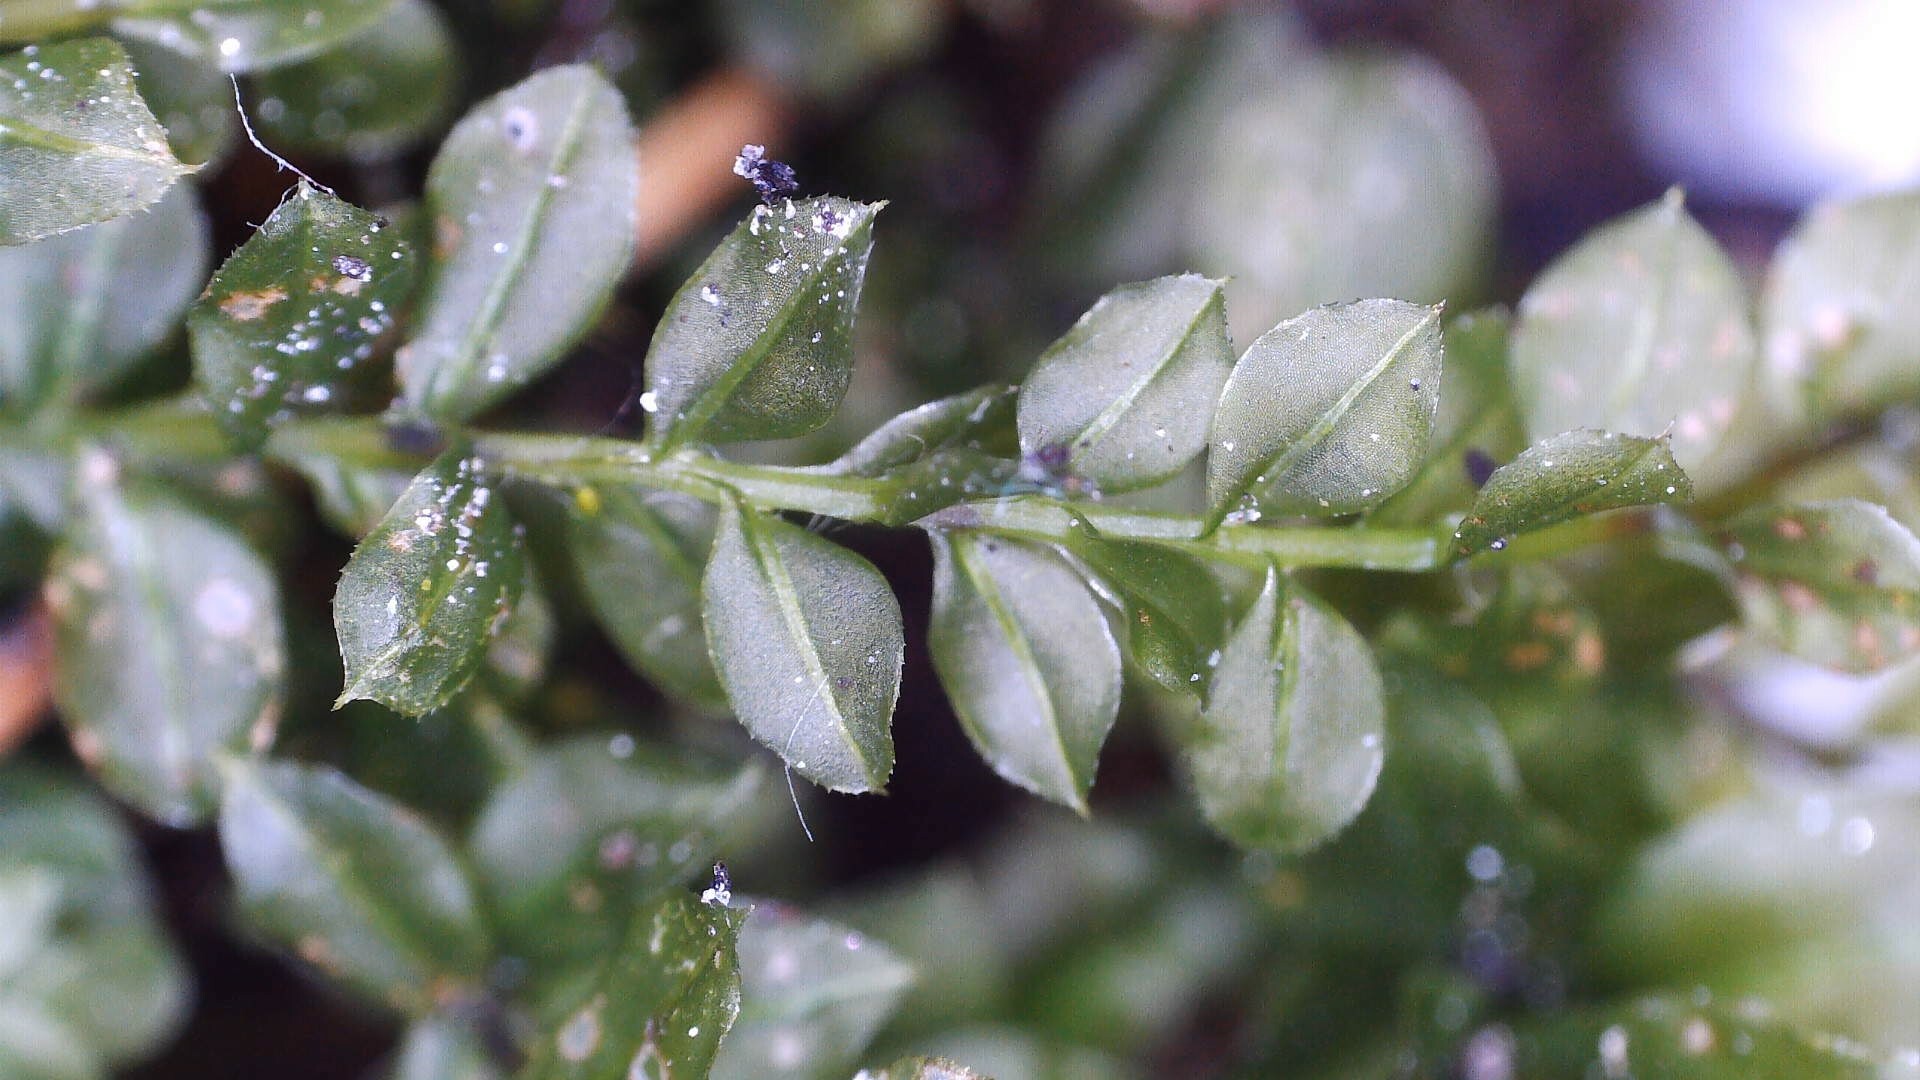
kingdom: Plantae
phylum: Bryophyta
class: Bryopsida
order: Bryales
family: Mniaceae
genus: Plagiomnium
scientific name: Plagiomnium cuspidatum
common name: Woodsy leafy moss
